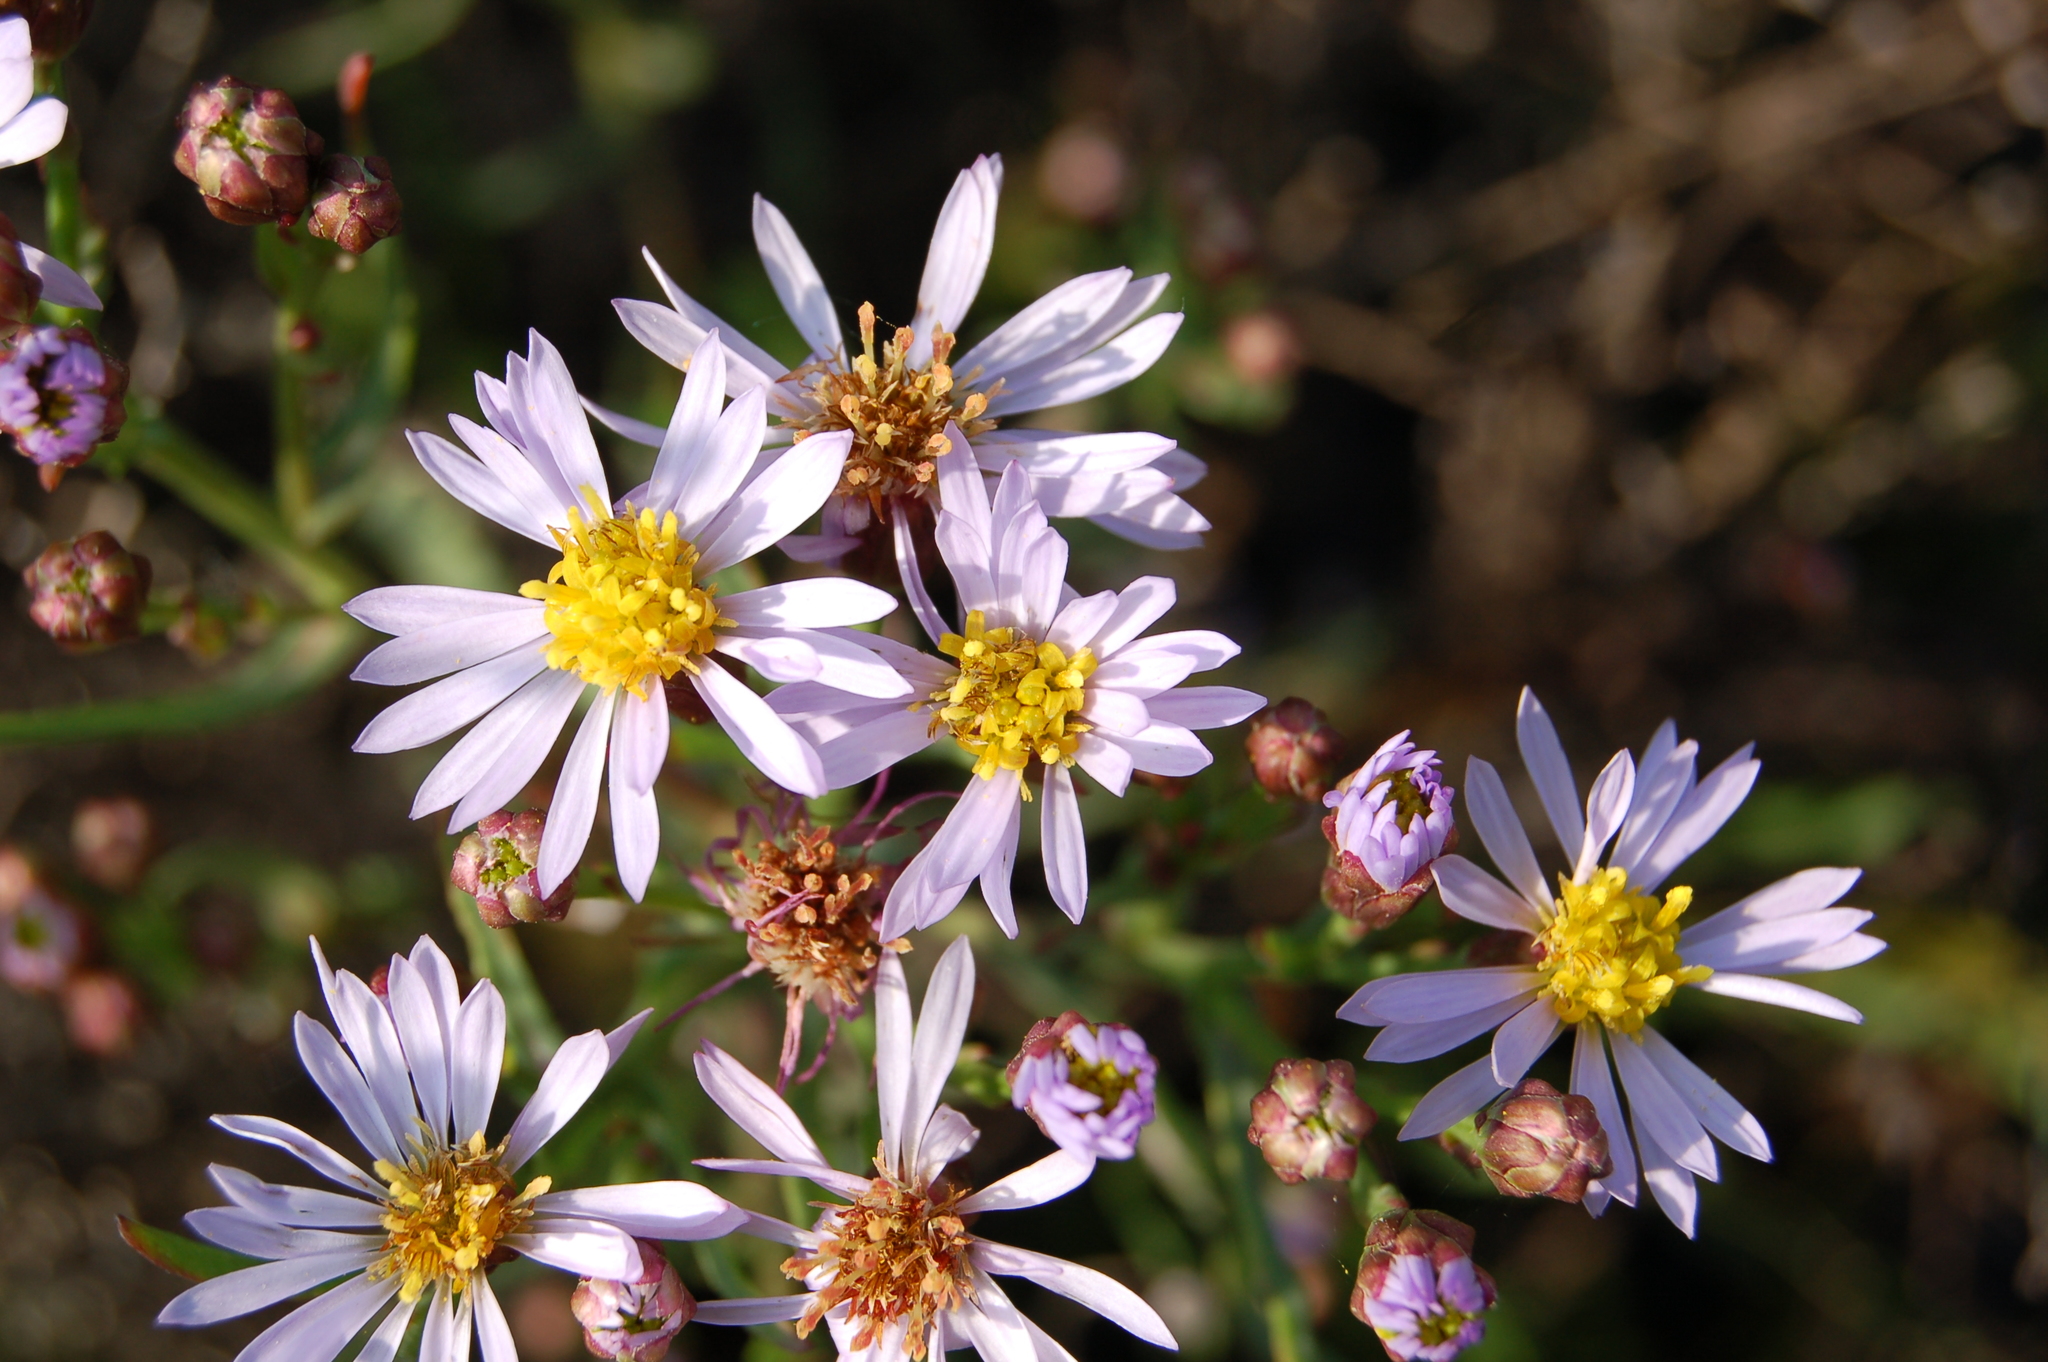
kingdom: Plantae
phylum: Tracheophyta
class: Magnoliopsida
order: Asterales
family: Asteraceae
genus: Tripolium
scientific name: Tripolium pannonicum
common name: Sea aster
